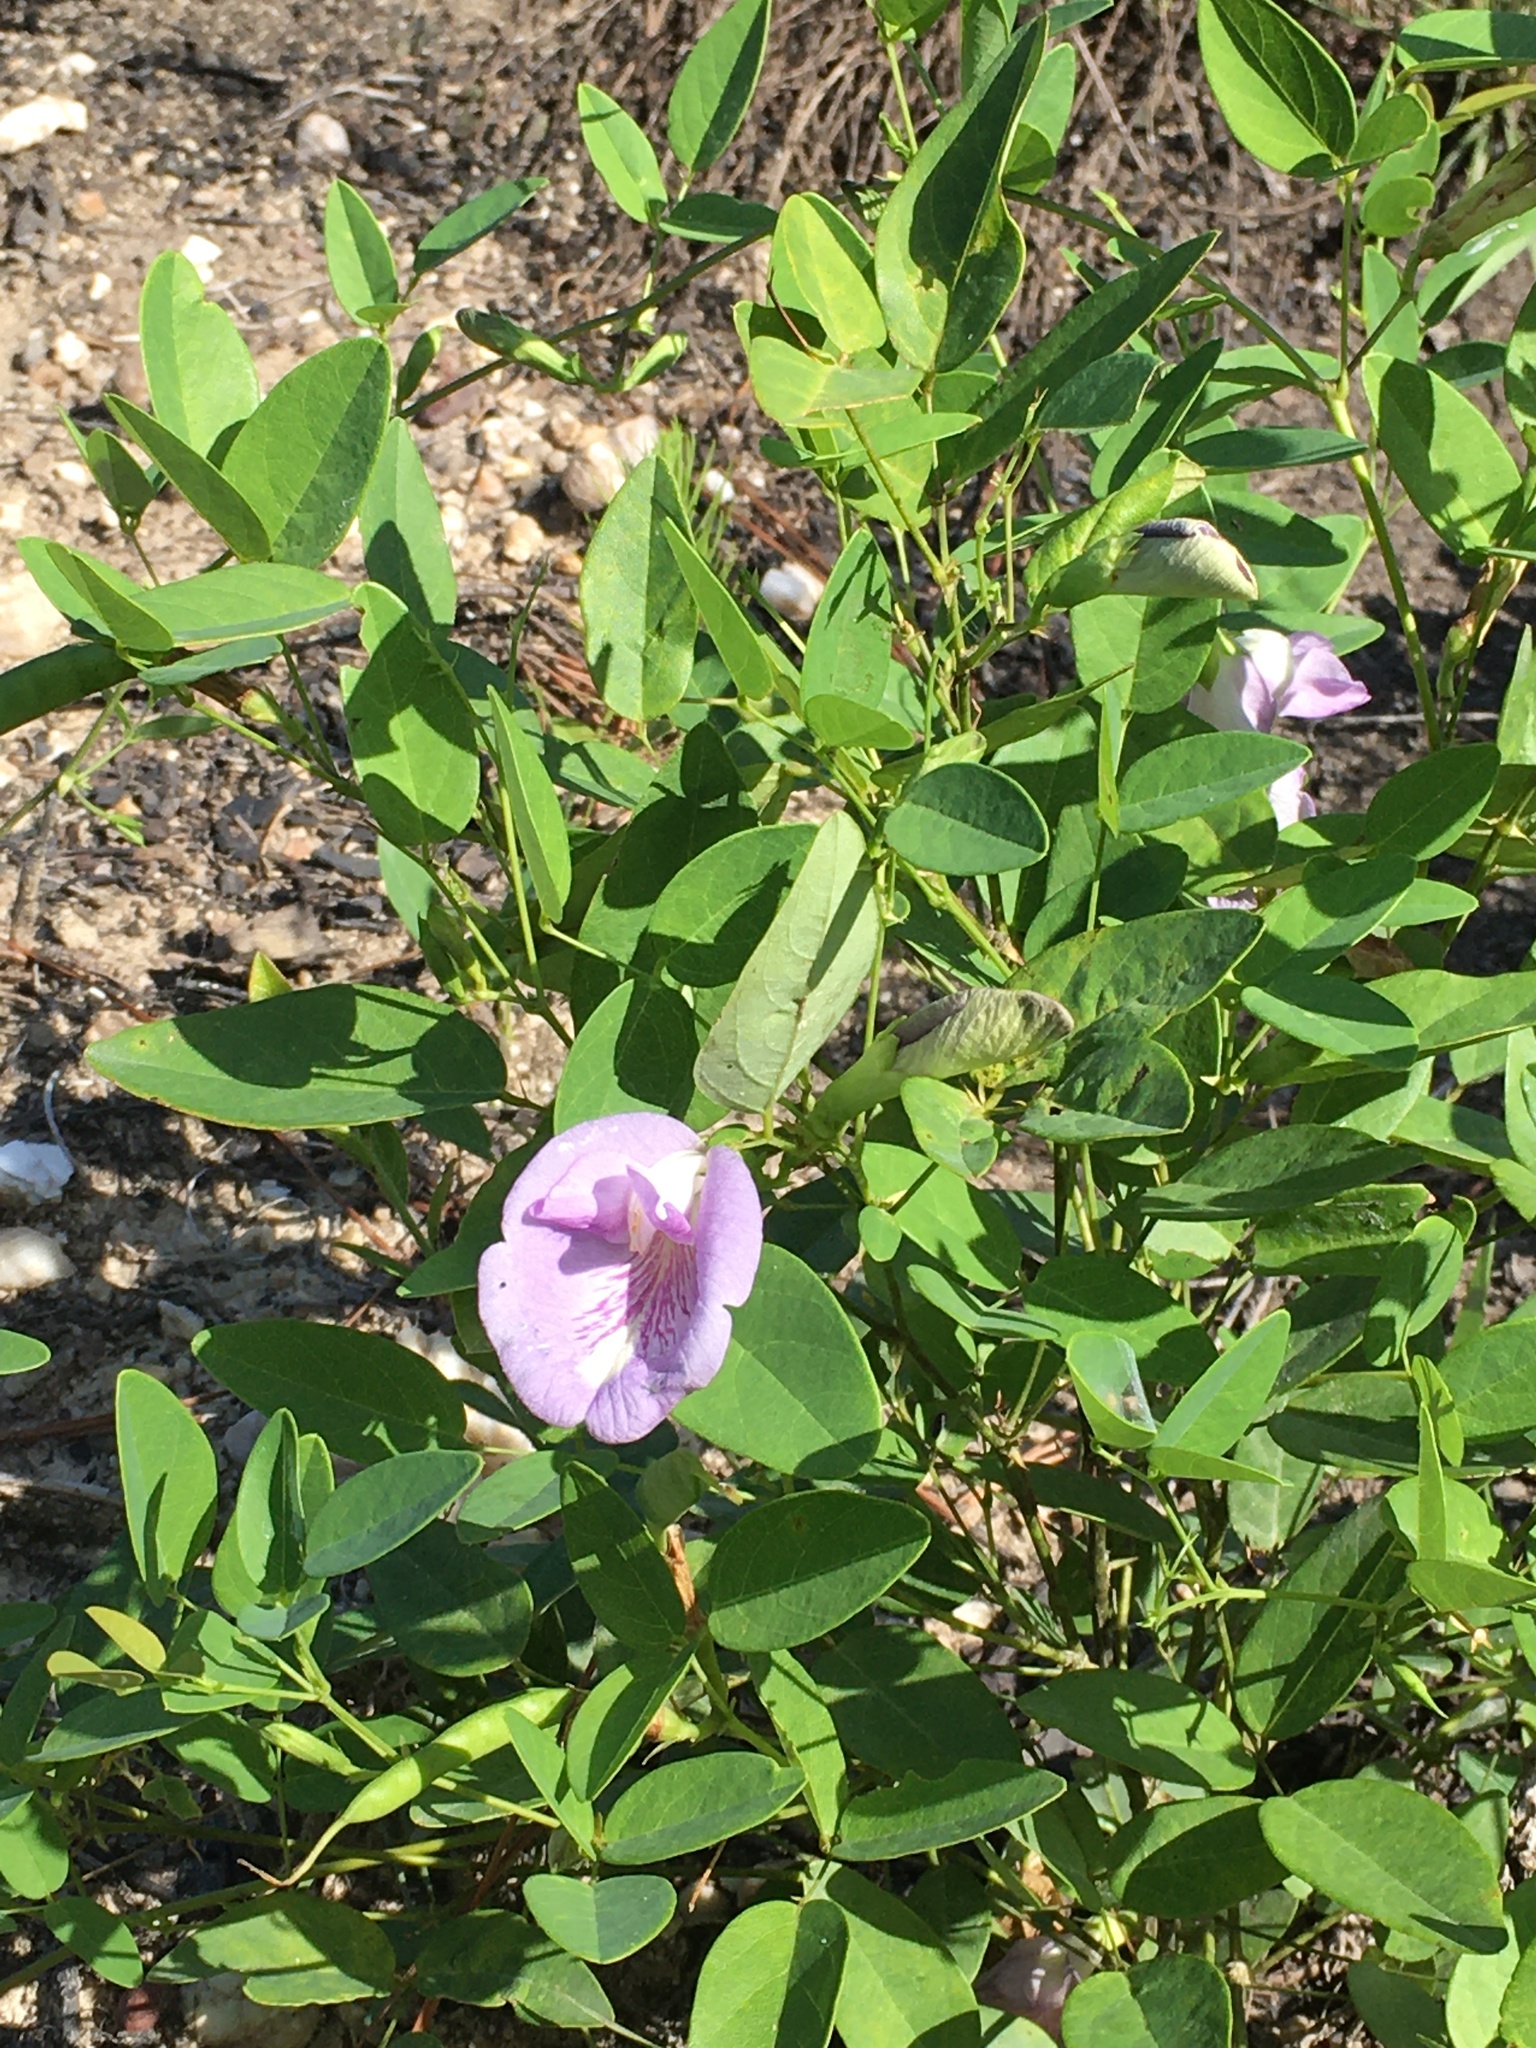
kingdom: Plantae
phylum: Tracheophyta
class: Magnoliopsida
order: Fabales
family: Fabaceae
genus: Clitoria
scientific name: Clitoria mariana
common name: Butterfly-pea
